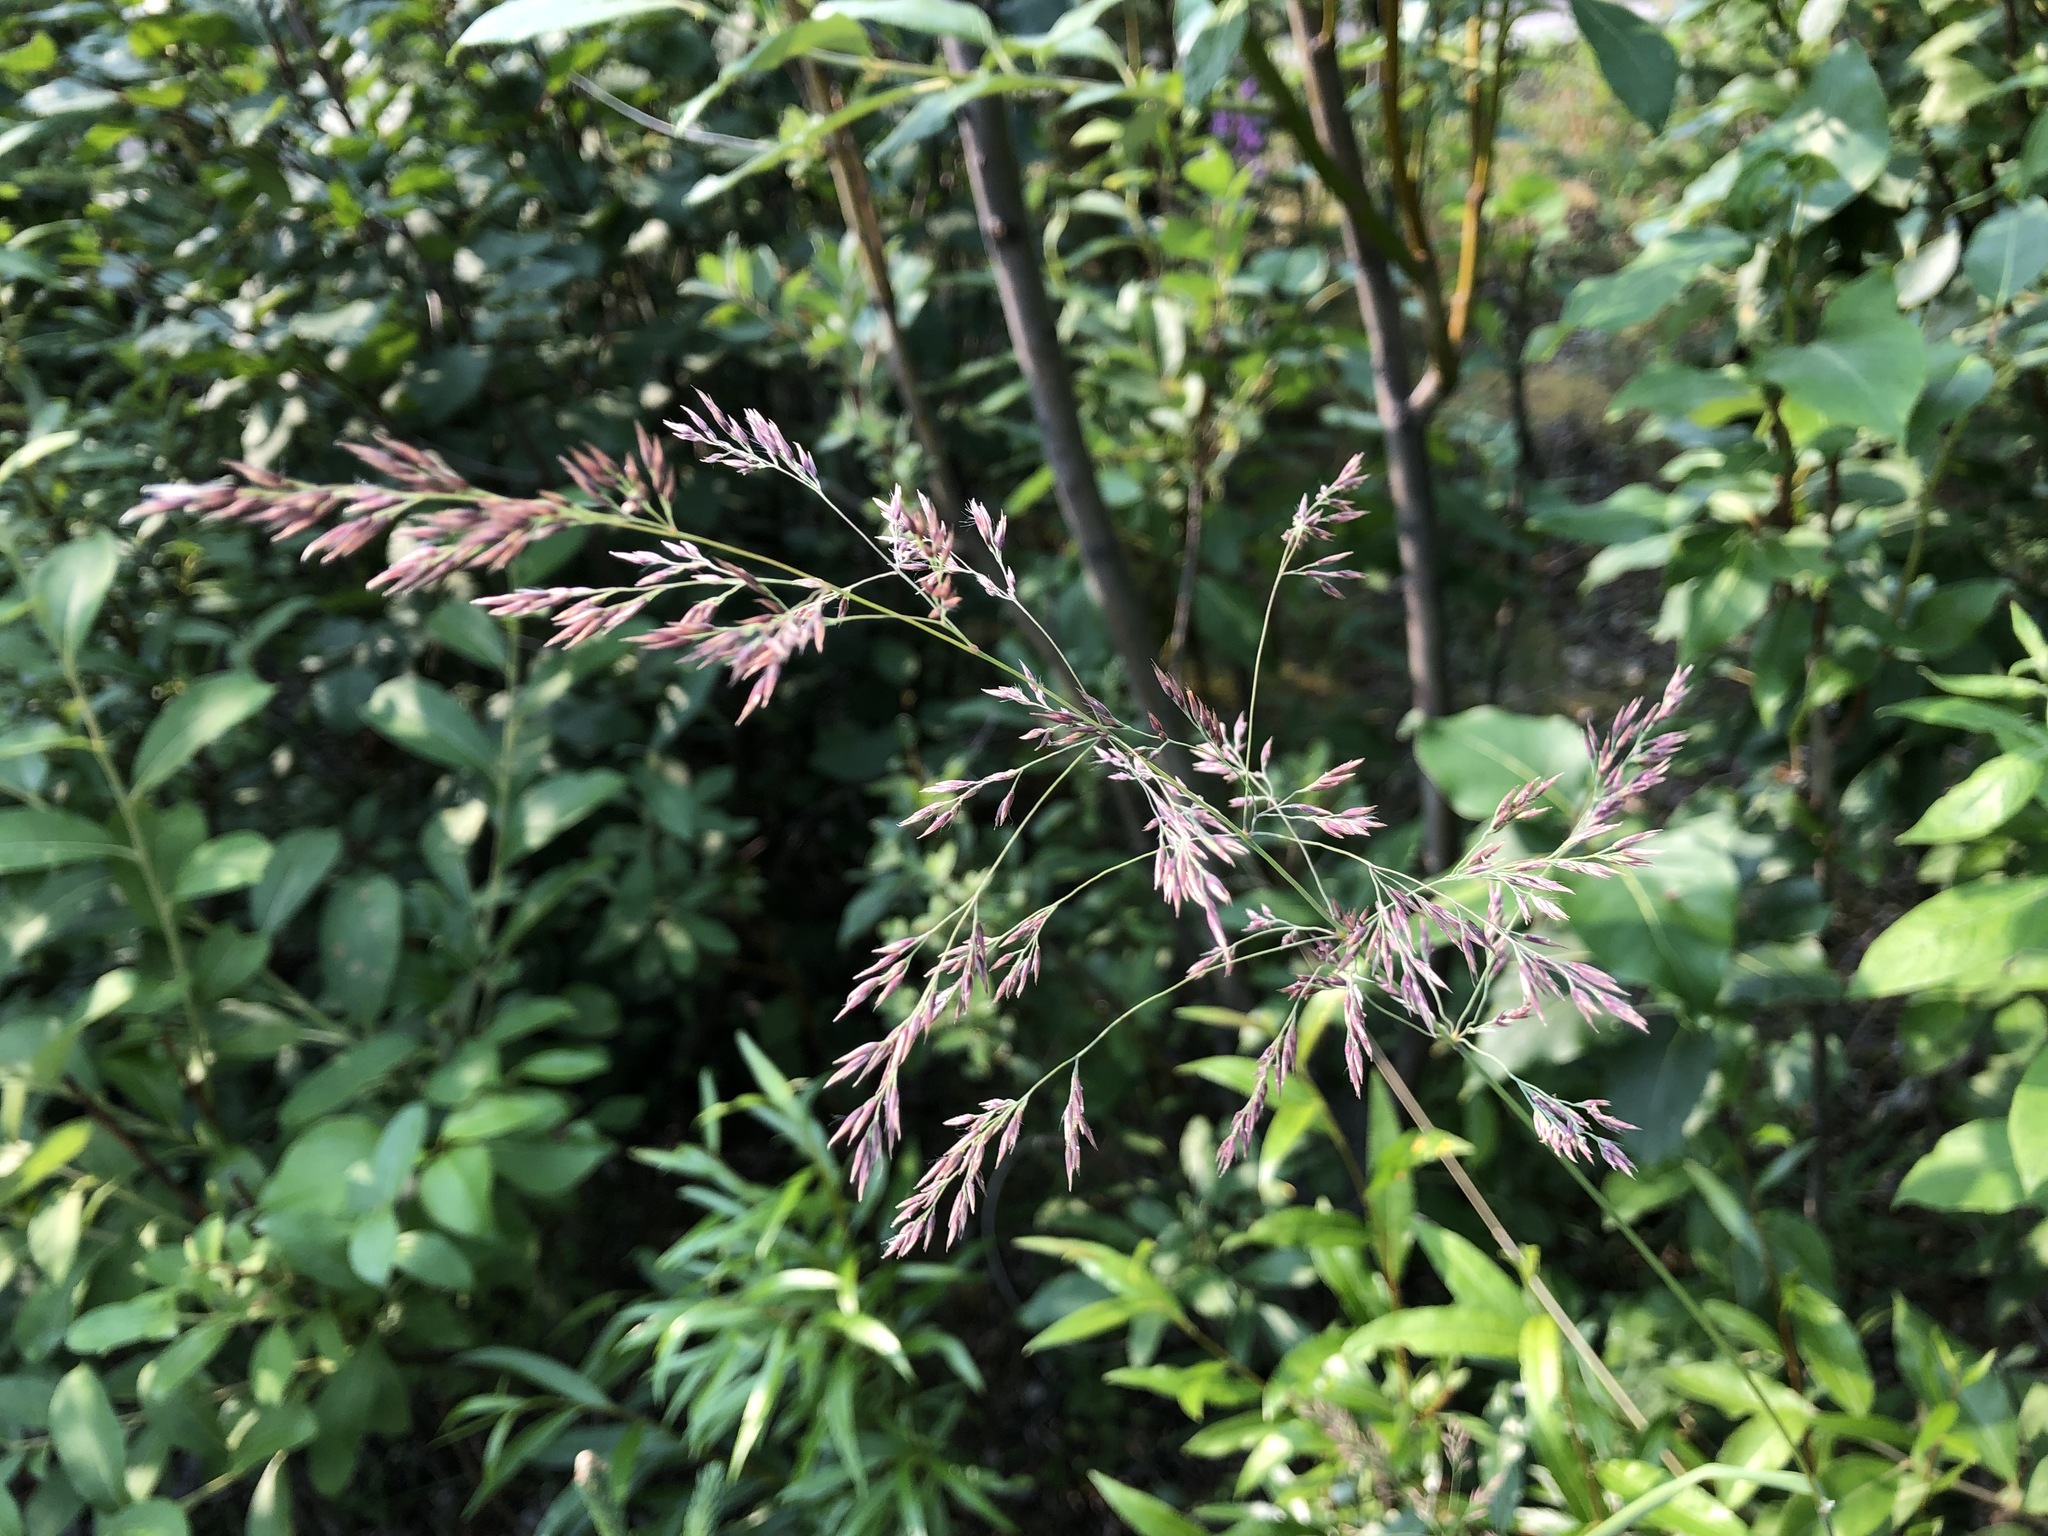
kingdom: Plantae
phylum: Tracheophyta
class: Liliopsida
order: Poales
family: Poaceae
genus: Calamagrostis
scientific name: Calamagrostis canadensis
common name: Canada bluejoint
